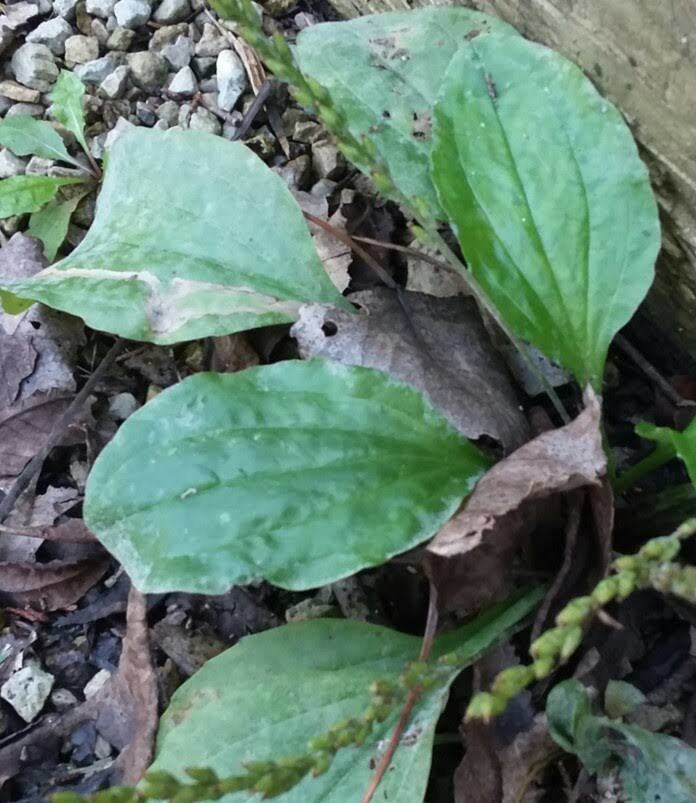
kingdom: Plantae
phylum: Tracheophyta
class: Magnoliopsida
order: Lamiales
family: Plantaginaceae
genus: Plantago
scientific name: Plantago rugelii
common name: American plantain
